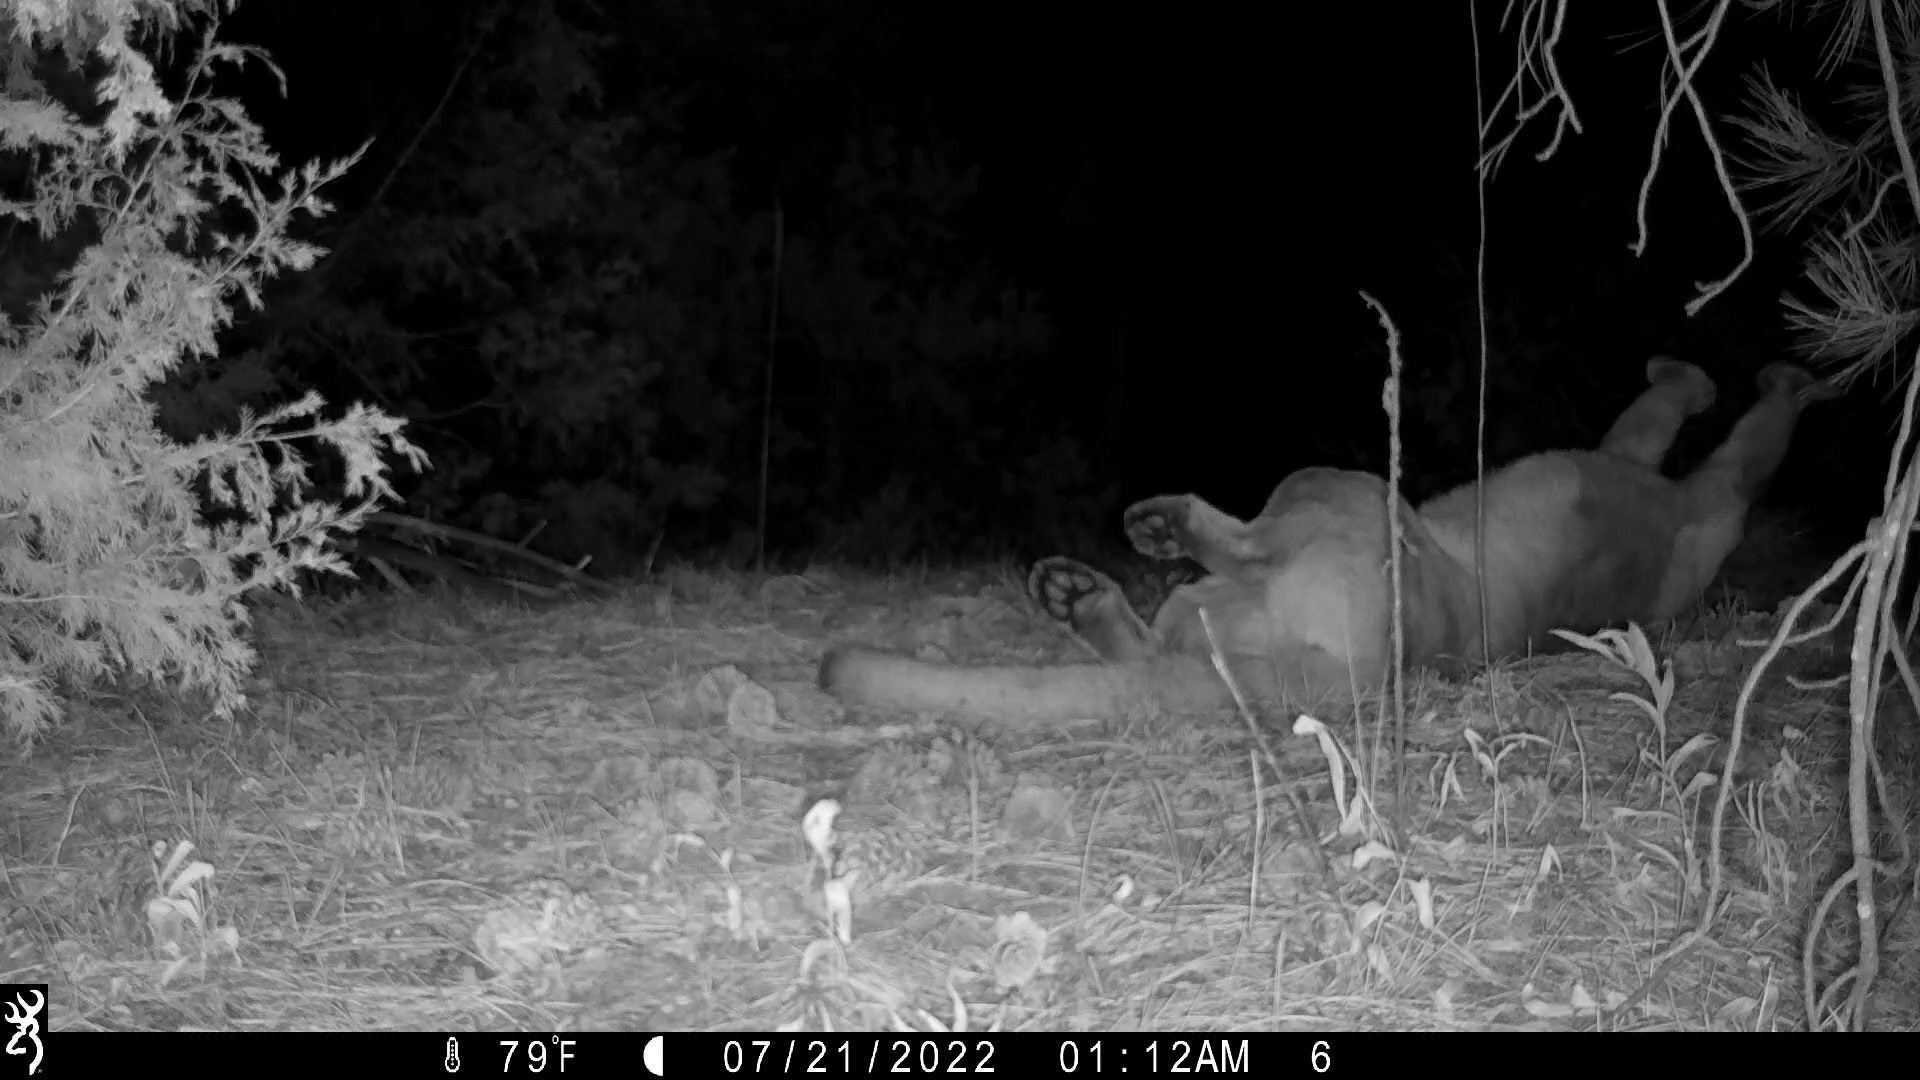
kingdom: Animalia
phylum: Chordata
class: Mammalia
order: Carnivora
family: Felidae
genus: Puma
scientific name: Puma concolor
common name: Puma
